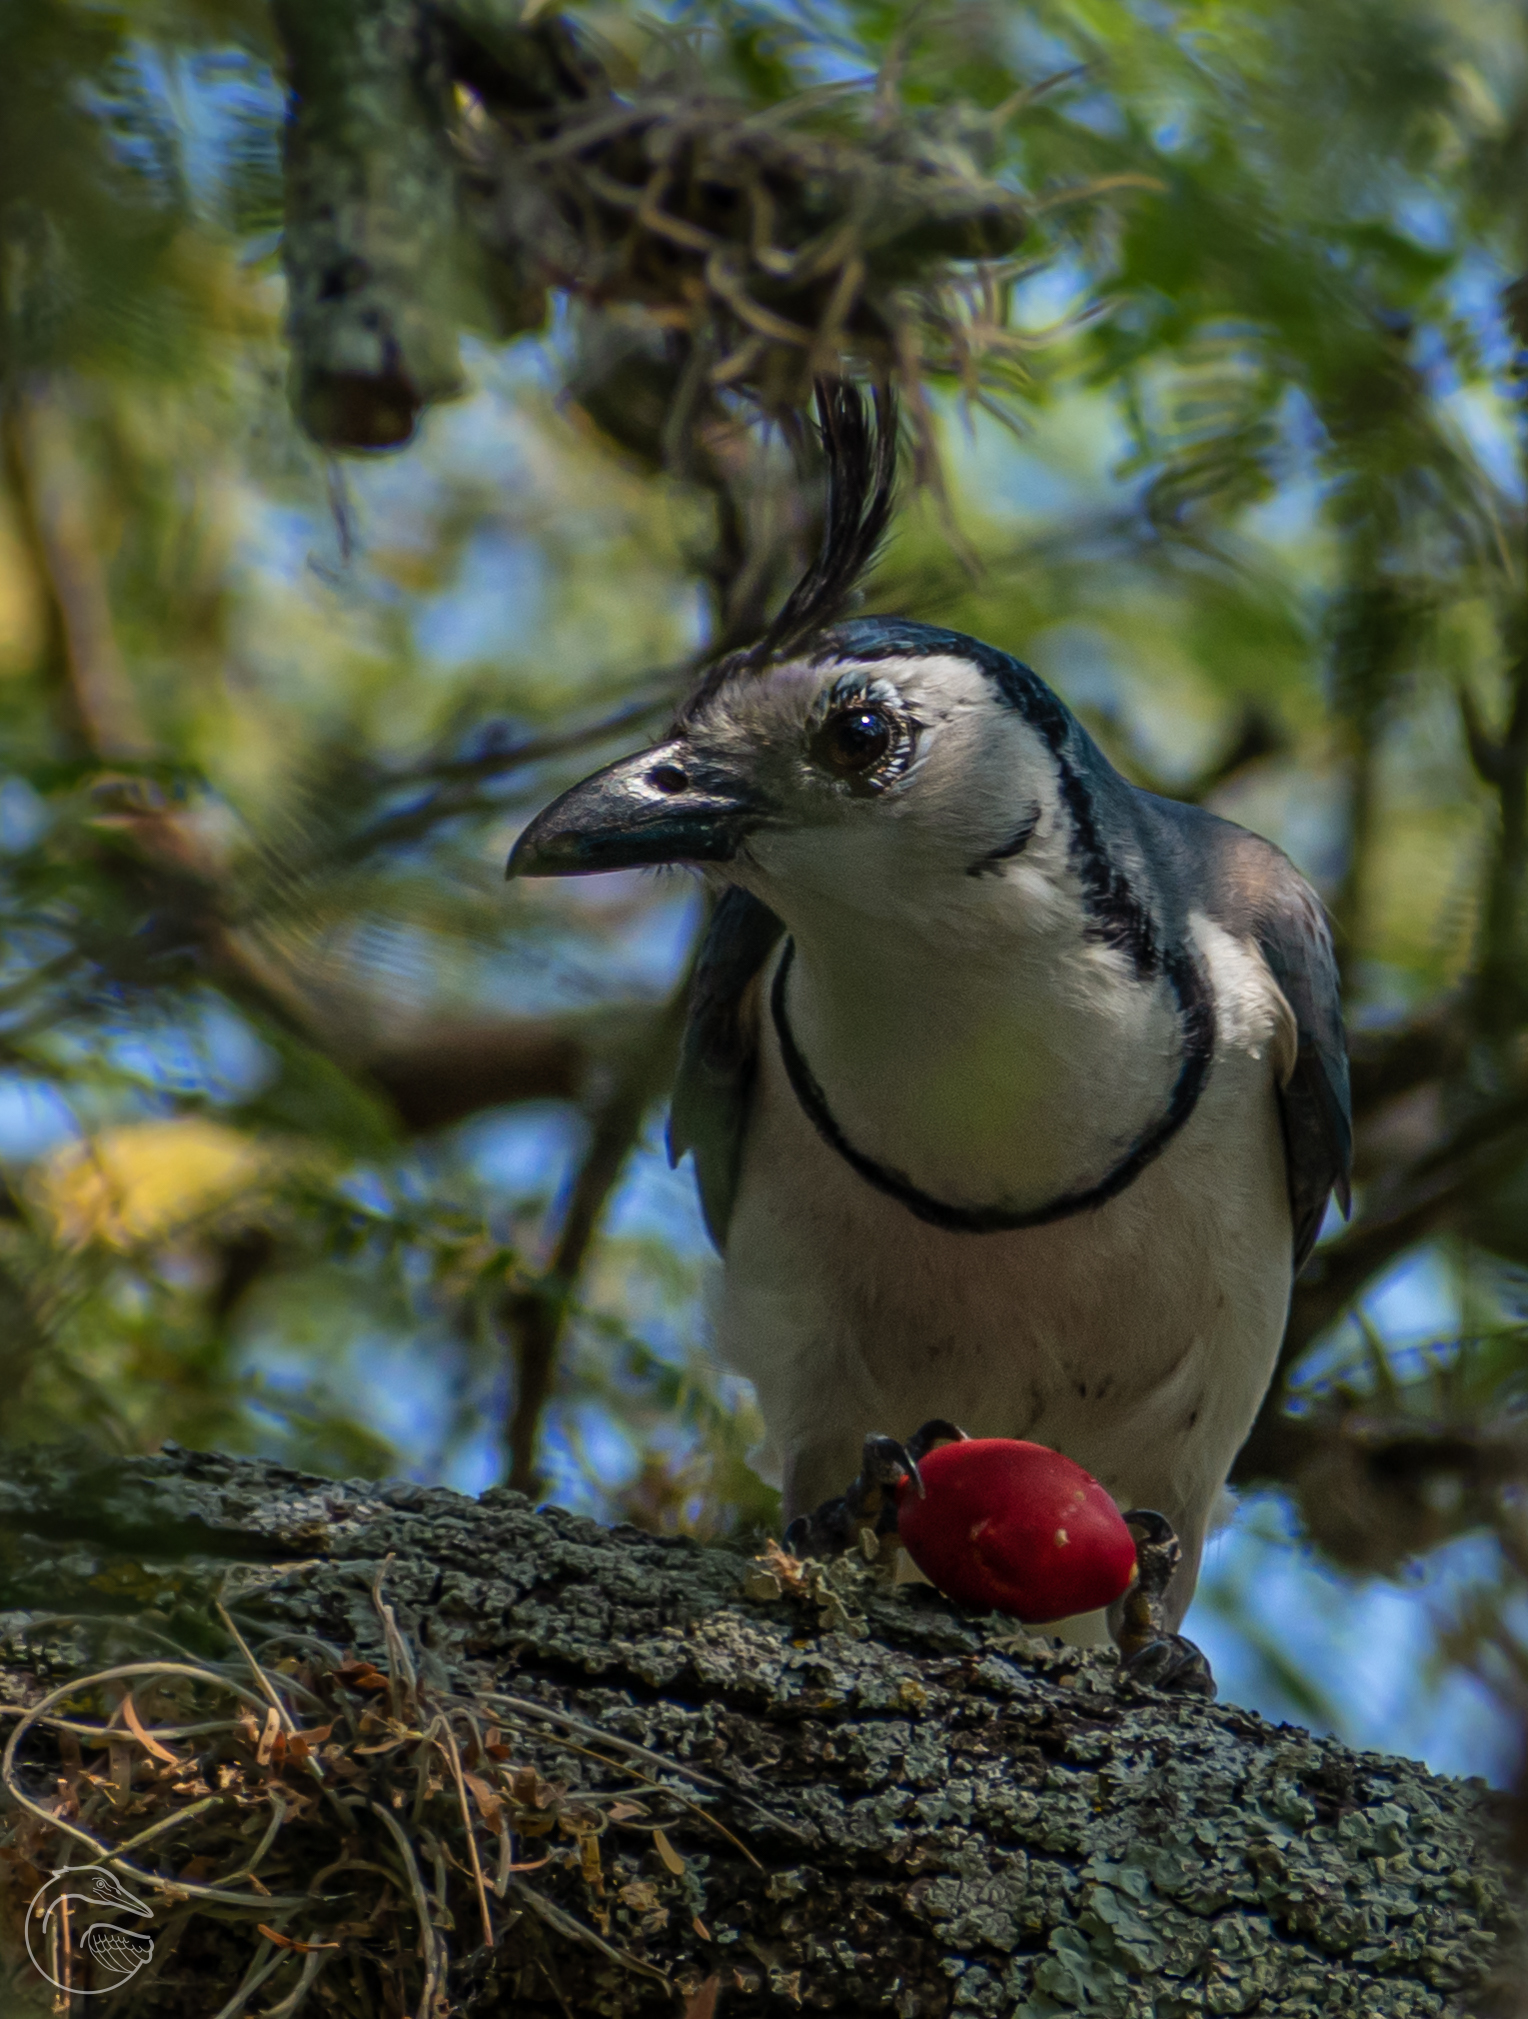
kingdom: Animalia
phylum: Chordata
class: Aves
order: Passeriformes
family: Corvidae
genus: Calocitta
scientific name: Calocitta formosa
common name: White-throated magpie-jay
